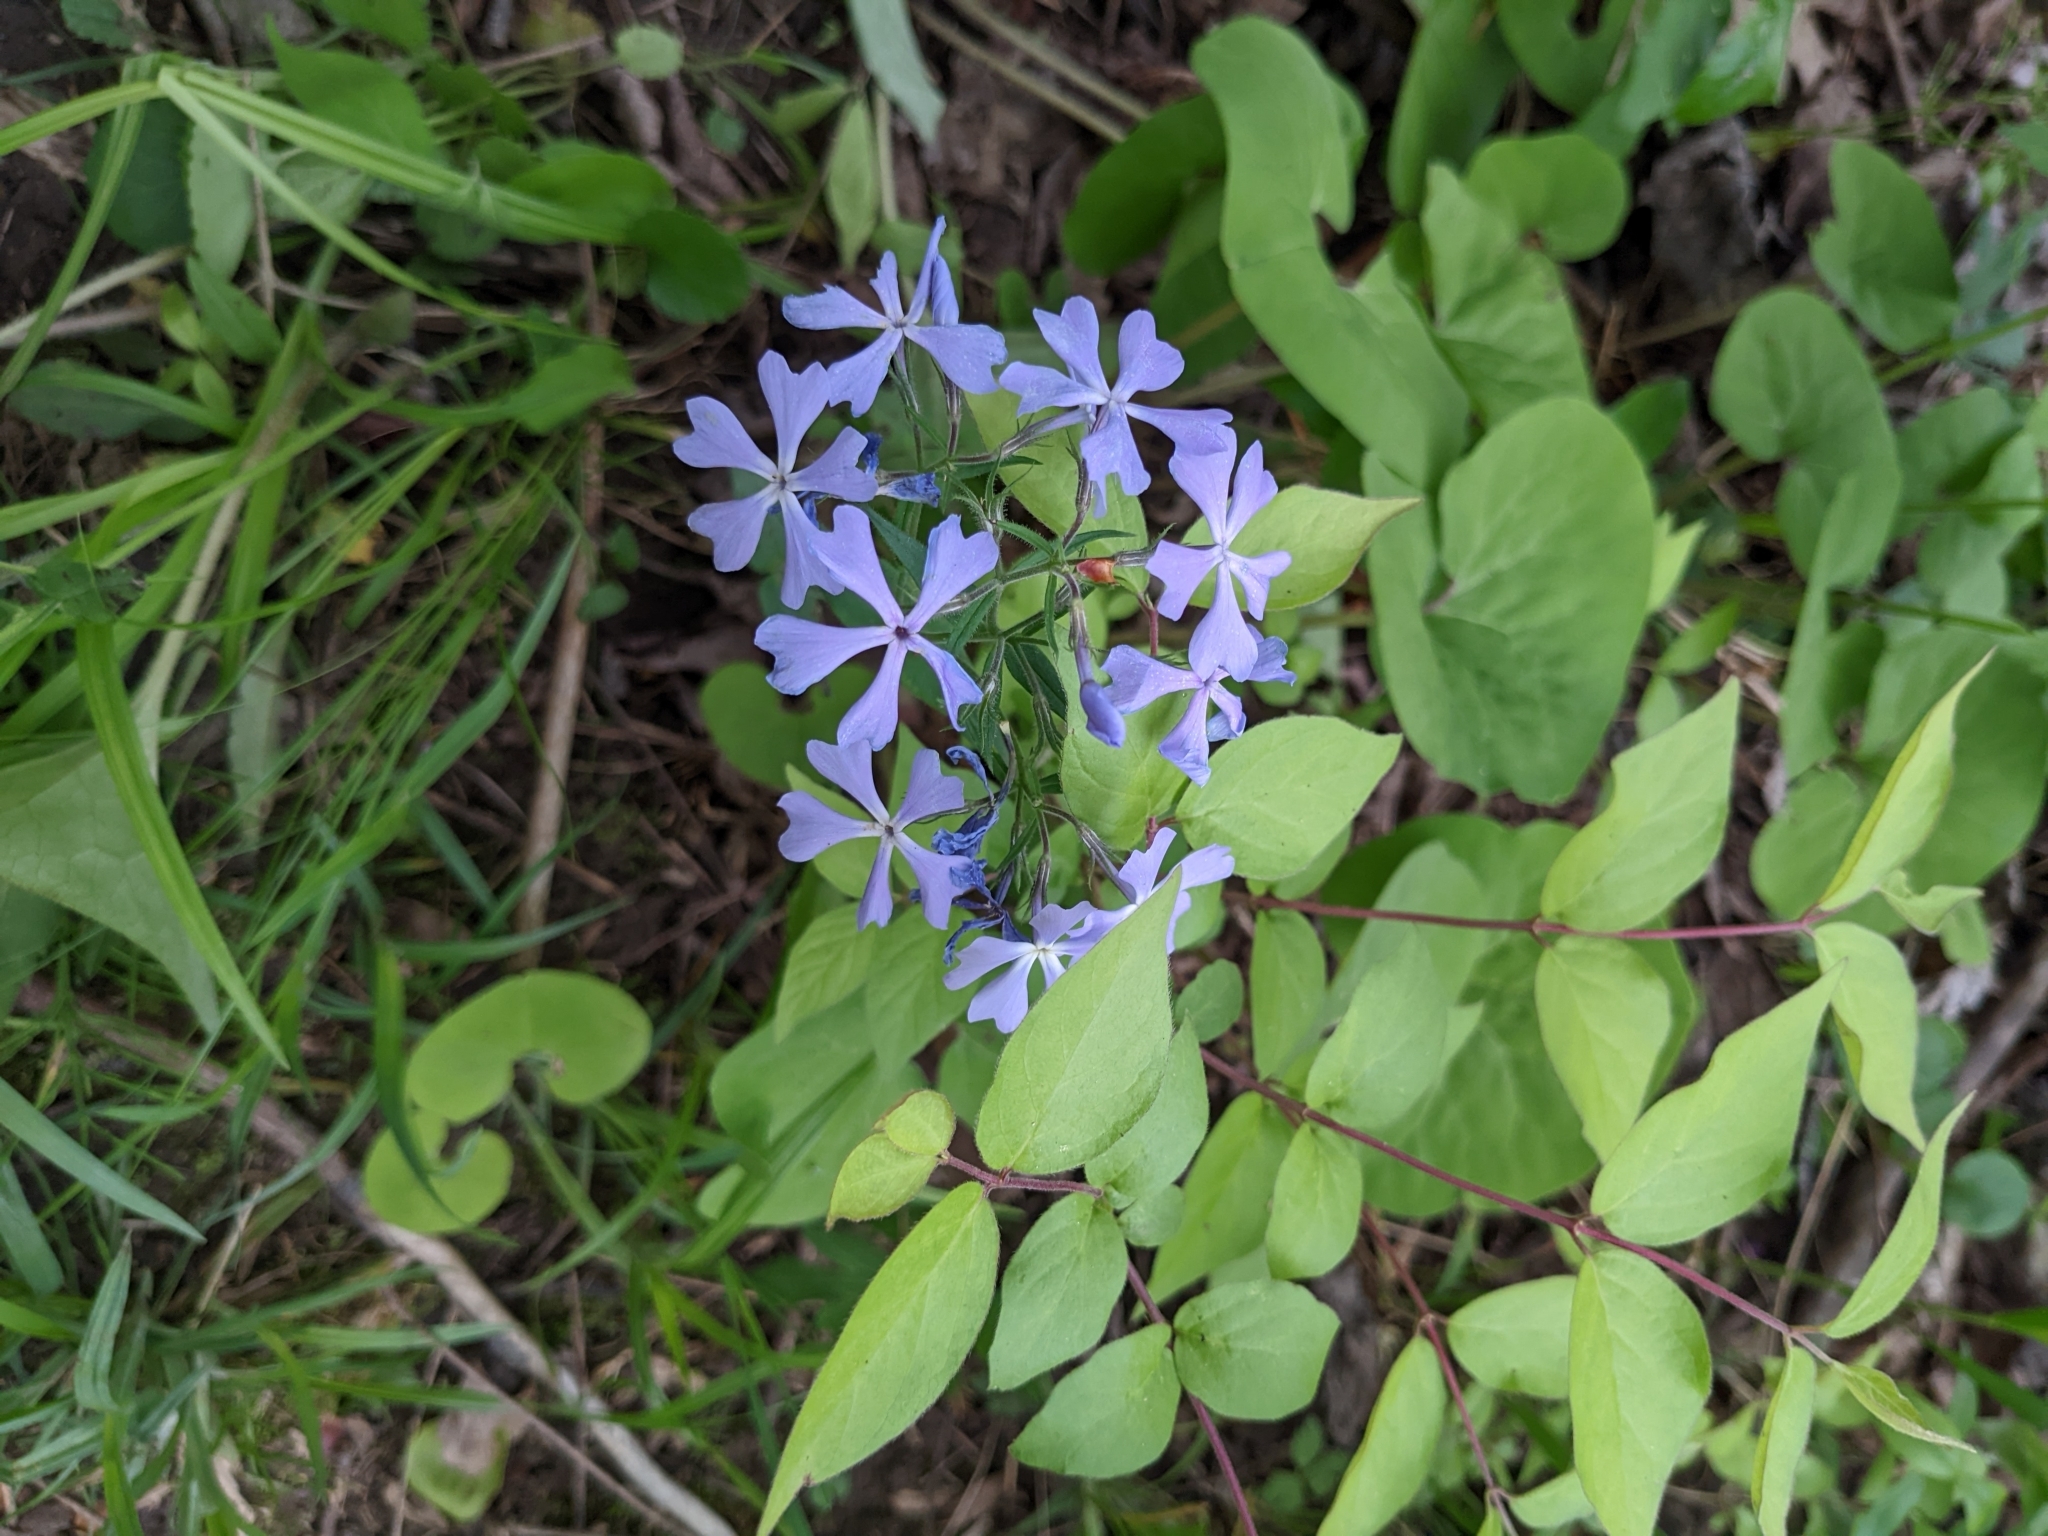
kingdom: Plantae
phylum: Tracheophyta
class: Magnoliopsida
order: Ericales
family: Polemoniaceae
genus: Phlox
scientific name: Phlox divaricata
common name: Blue phlox
